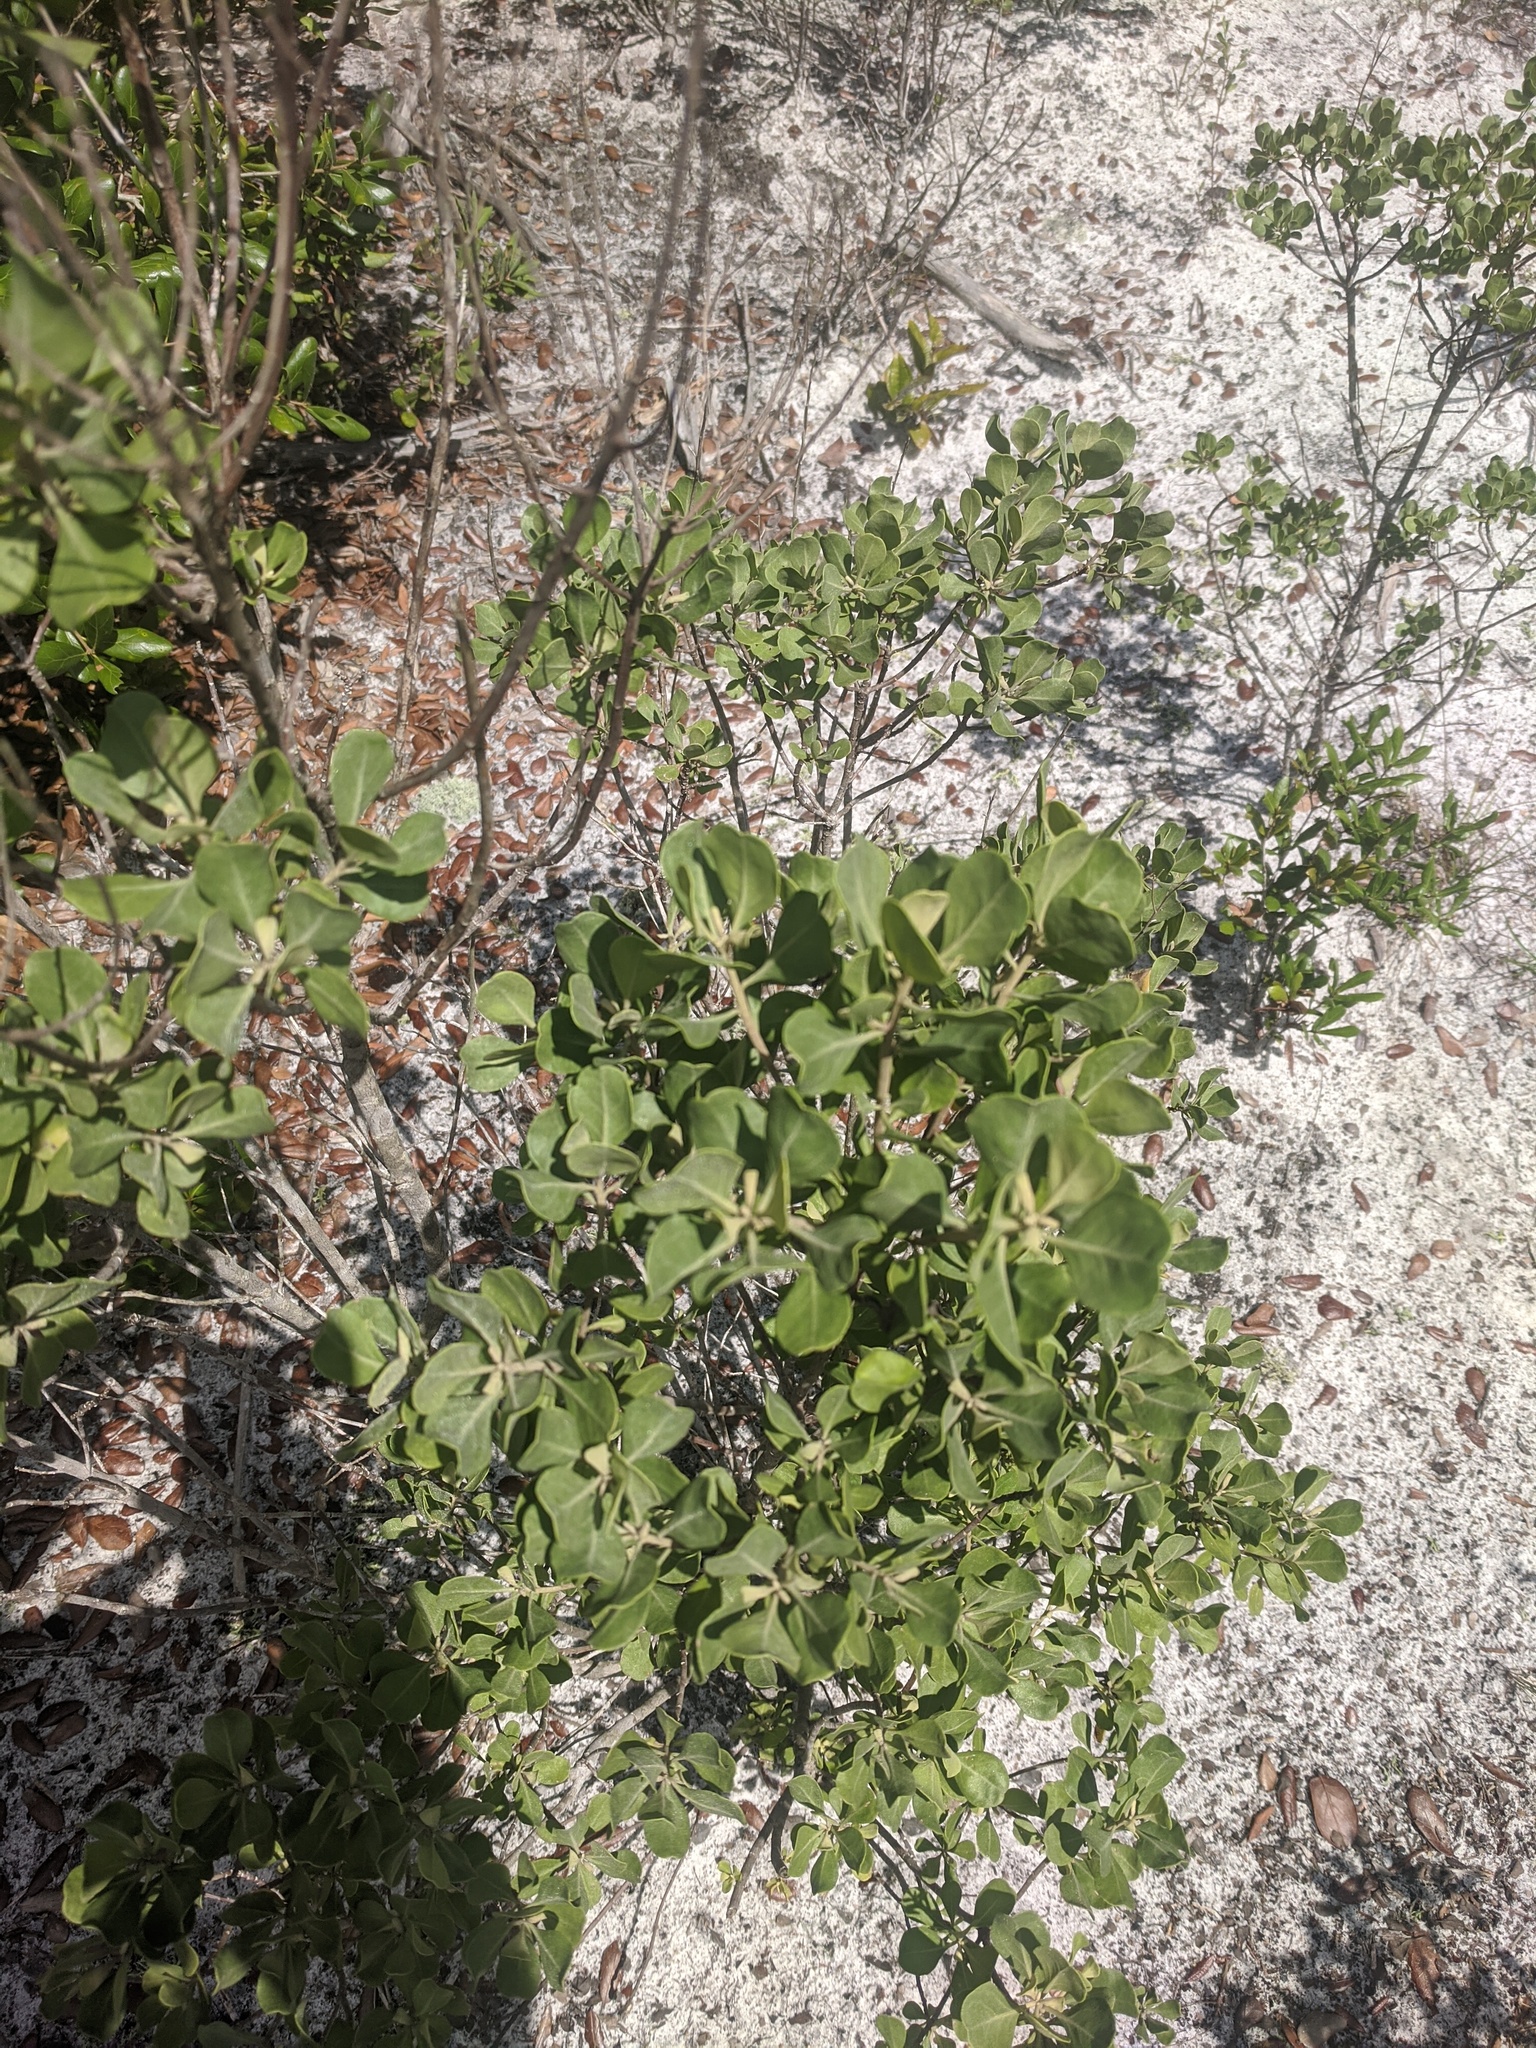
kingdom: Plantae
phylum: Tracheophyta
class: Magnoliopsida
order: Asterales
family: Asteraceae
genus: Garberia
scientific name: Garberia heterophylla
